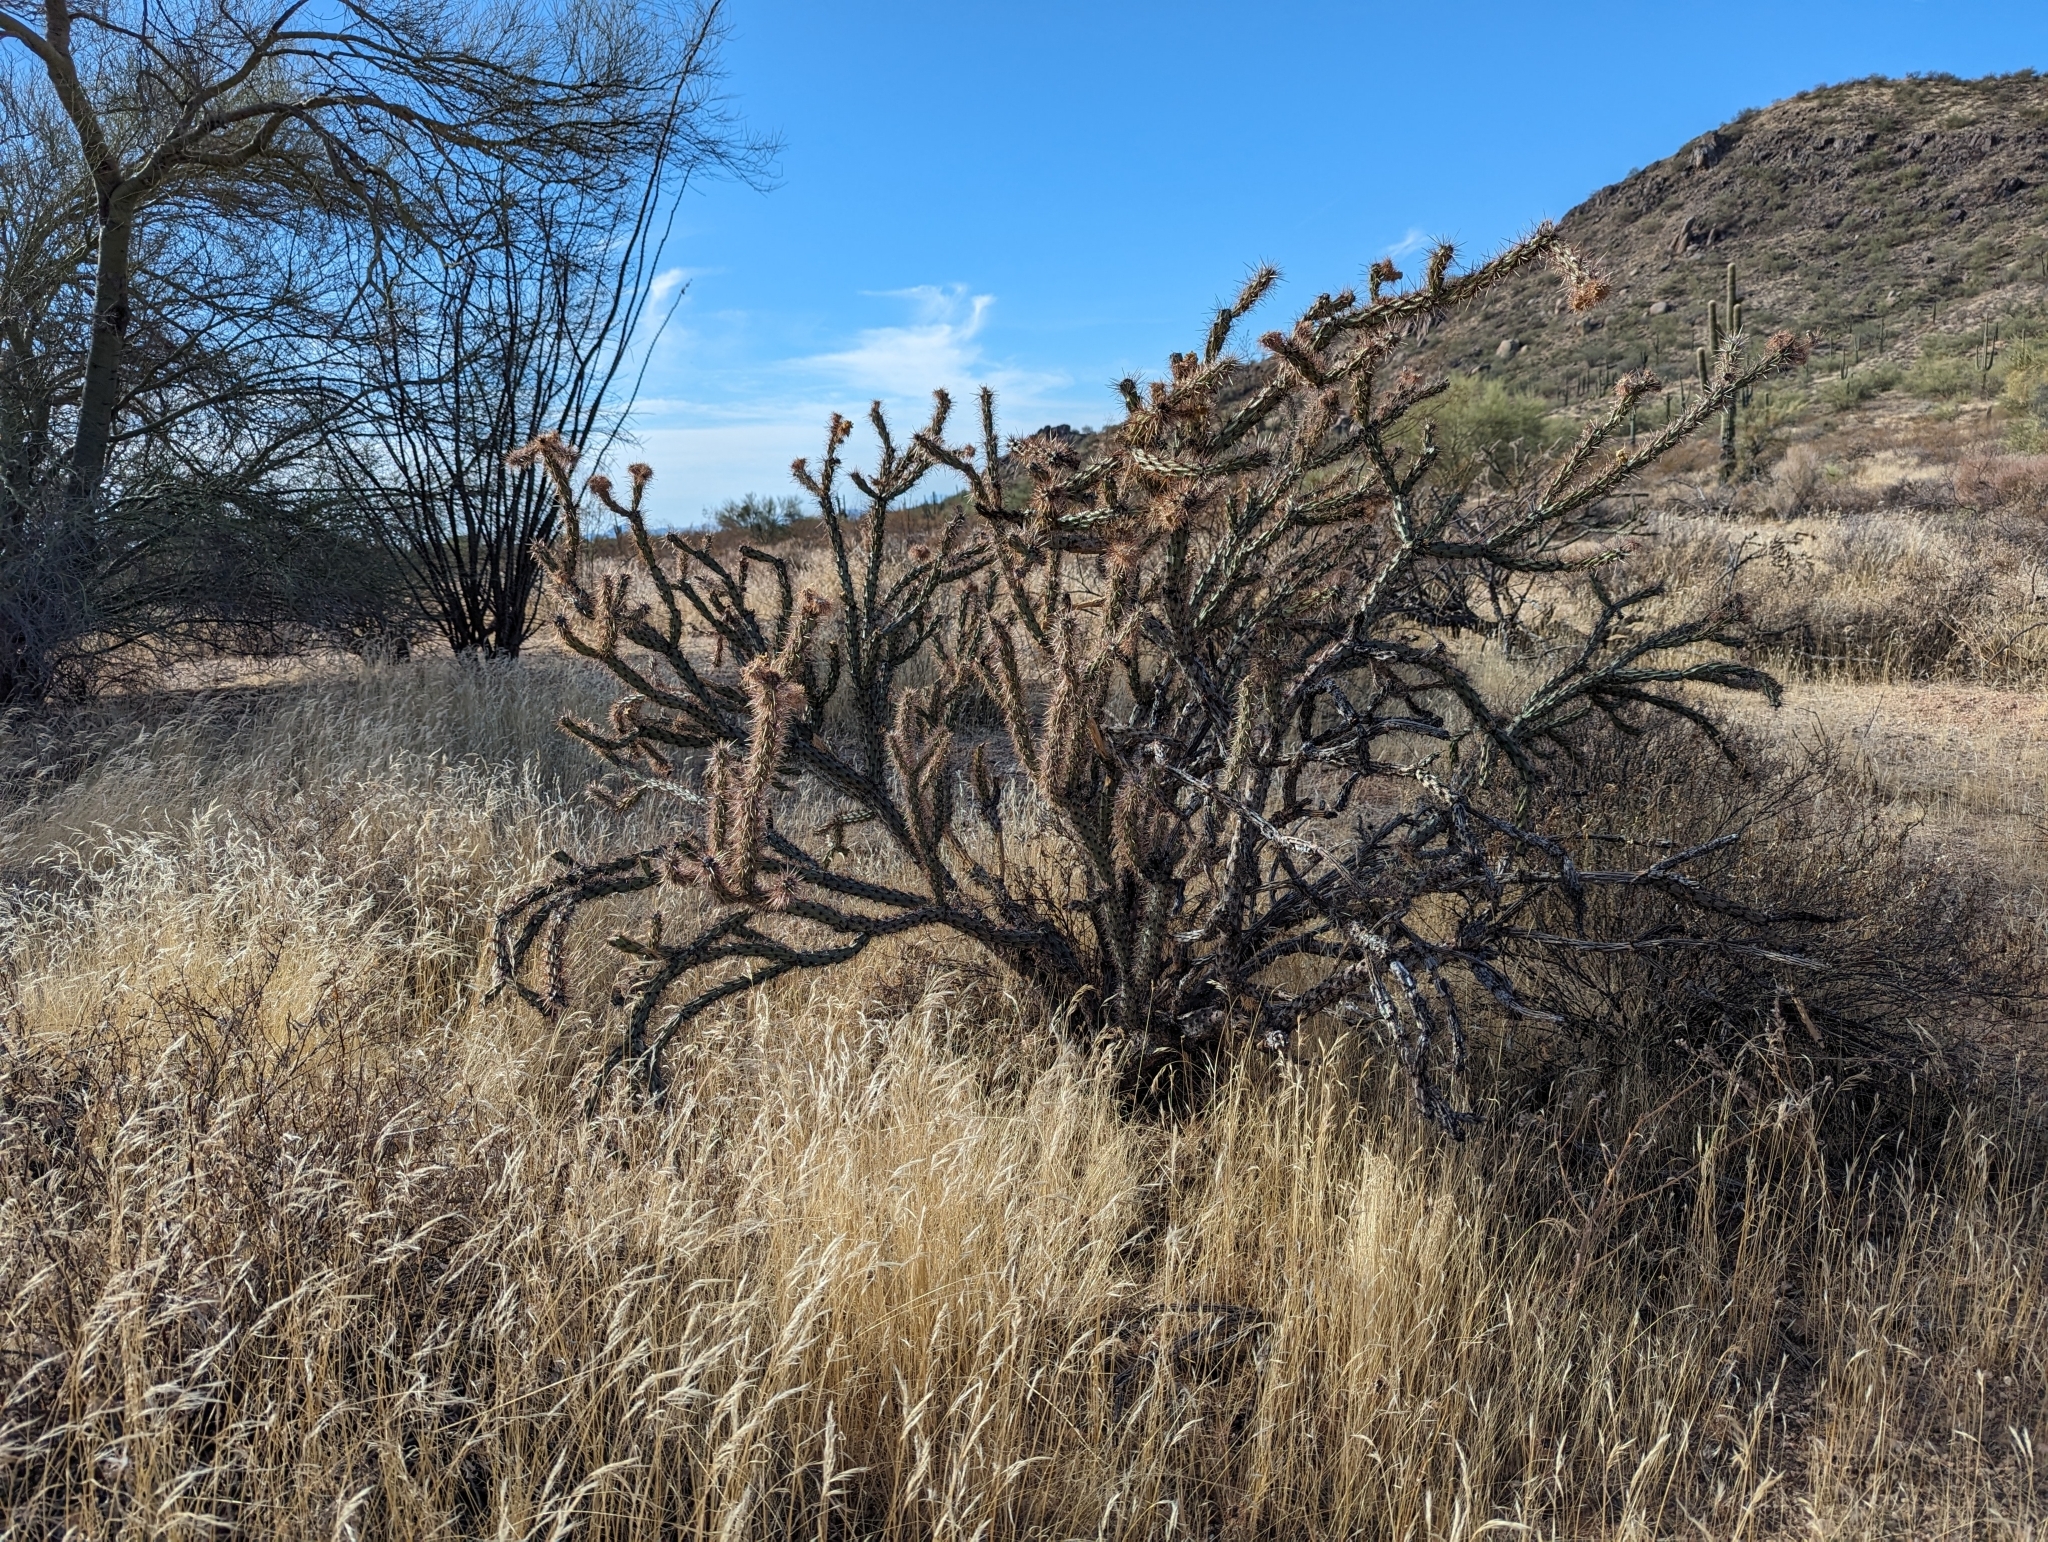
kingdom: Plantae
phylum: Tracheophyta
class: Magnoliopsida
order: Caryophyllales
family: Cactaceae
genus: Cylindropuntia
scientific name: Cylindropuntia acanthocarpa
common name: Buckhorn cholla
